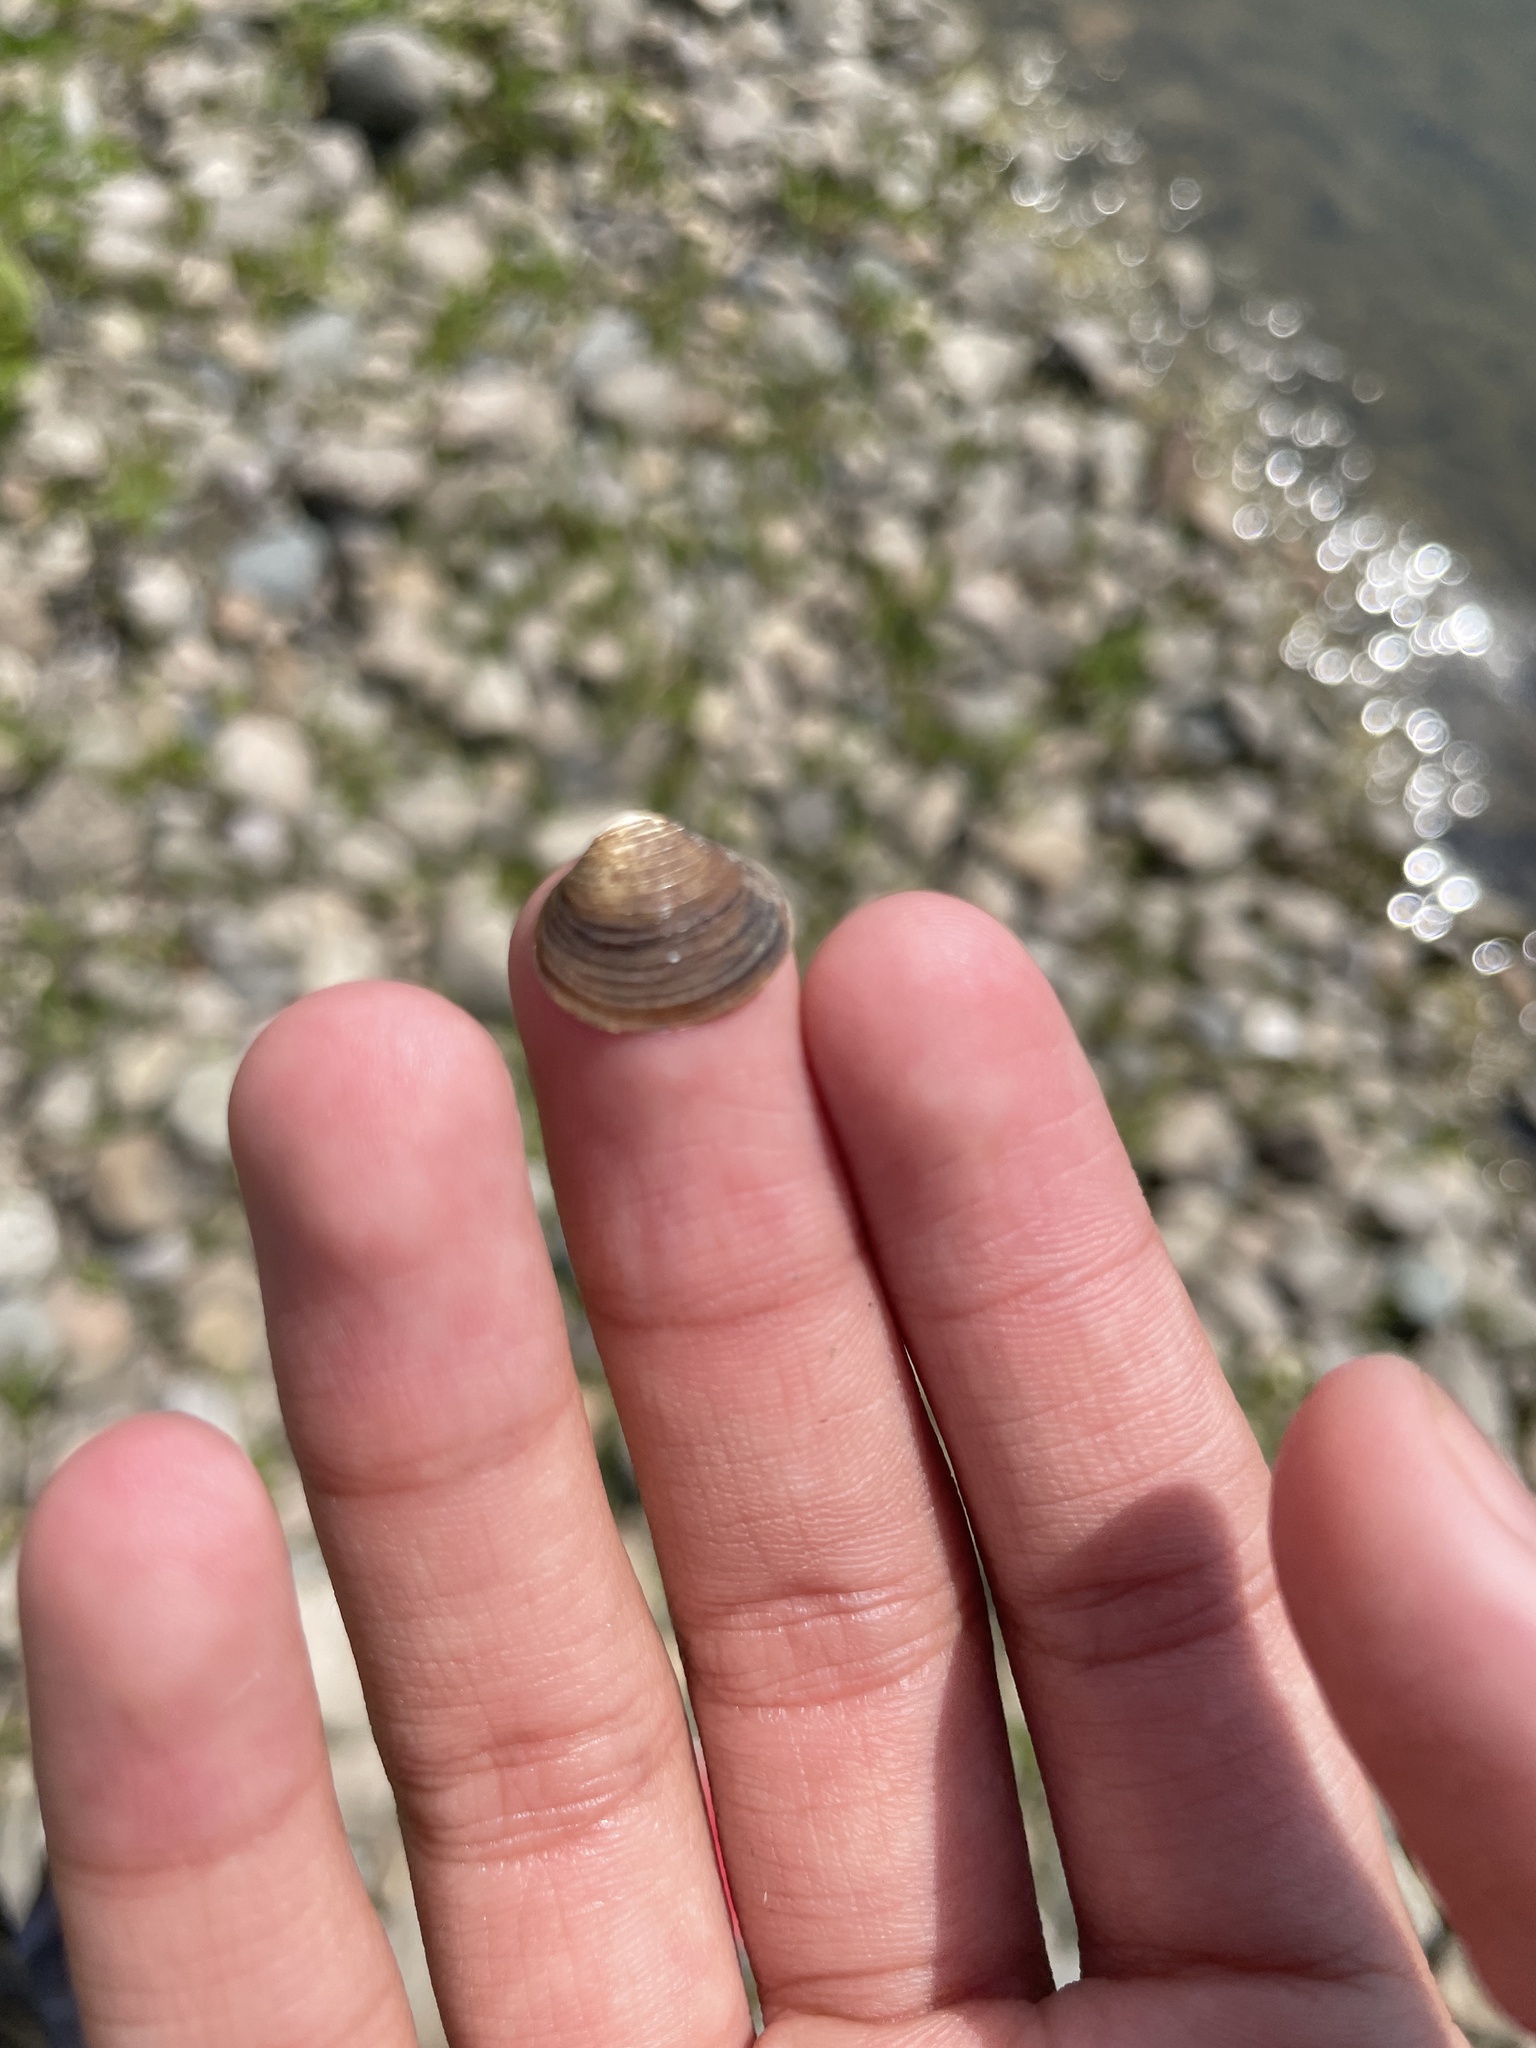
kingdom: Animalia
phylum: Mollusca
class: Bivalvia
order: Venerida
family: Cyrenidae
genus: Corbicula
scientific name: Corbicula fluminea
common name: Asian clam
